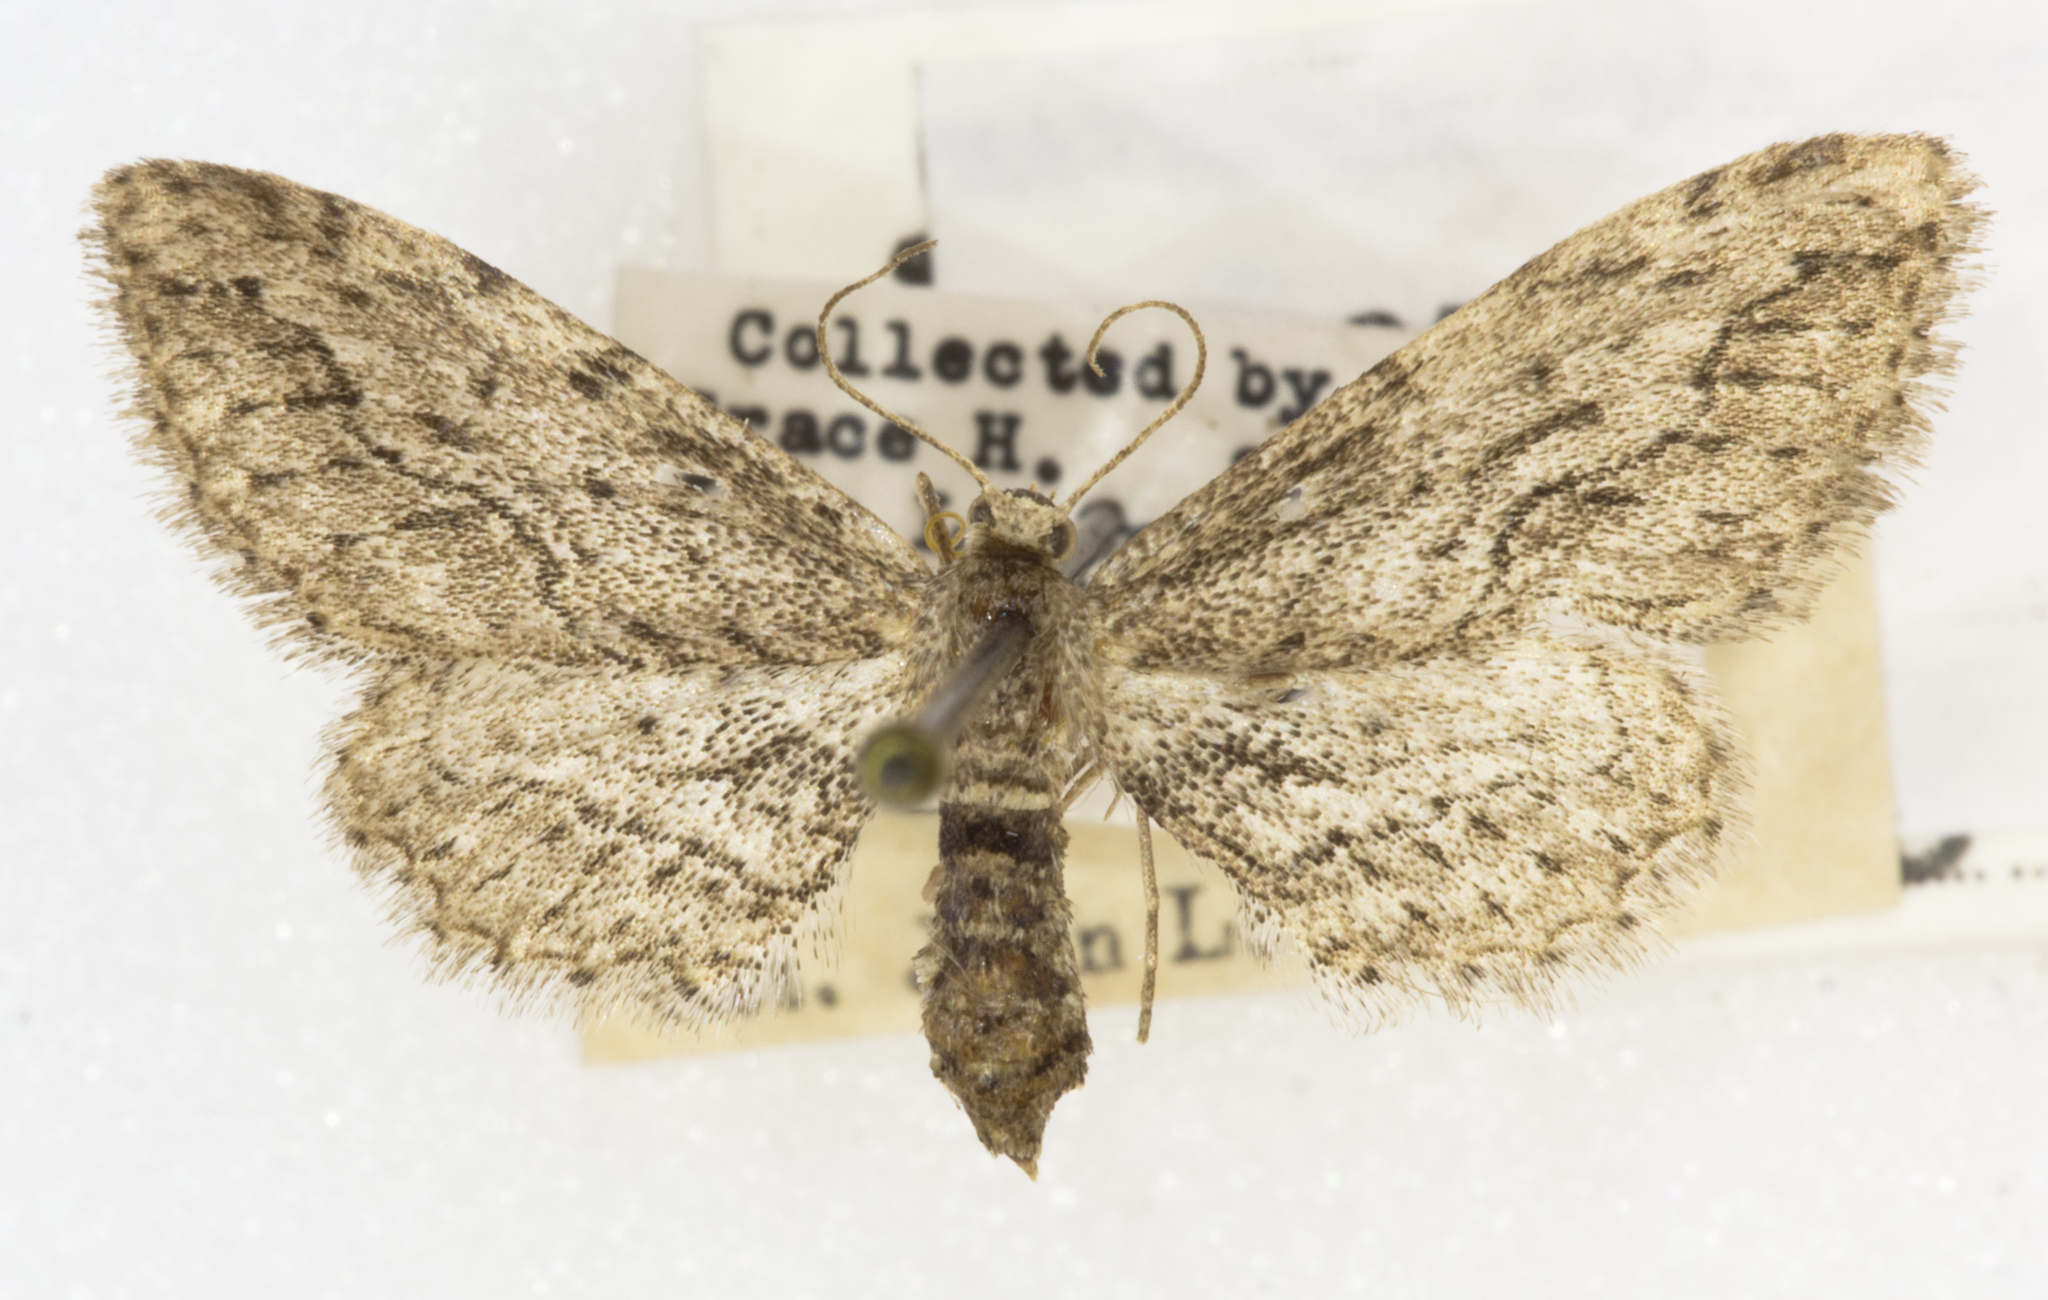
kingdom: Animalia
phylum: Arthropoda
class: Insecta
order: Lepidoptera
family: Geometridae
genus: Pimaphera
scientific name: Pimaphera percata
